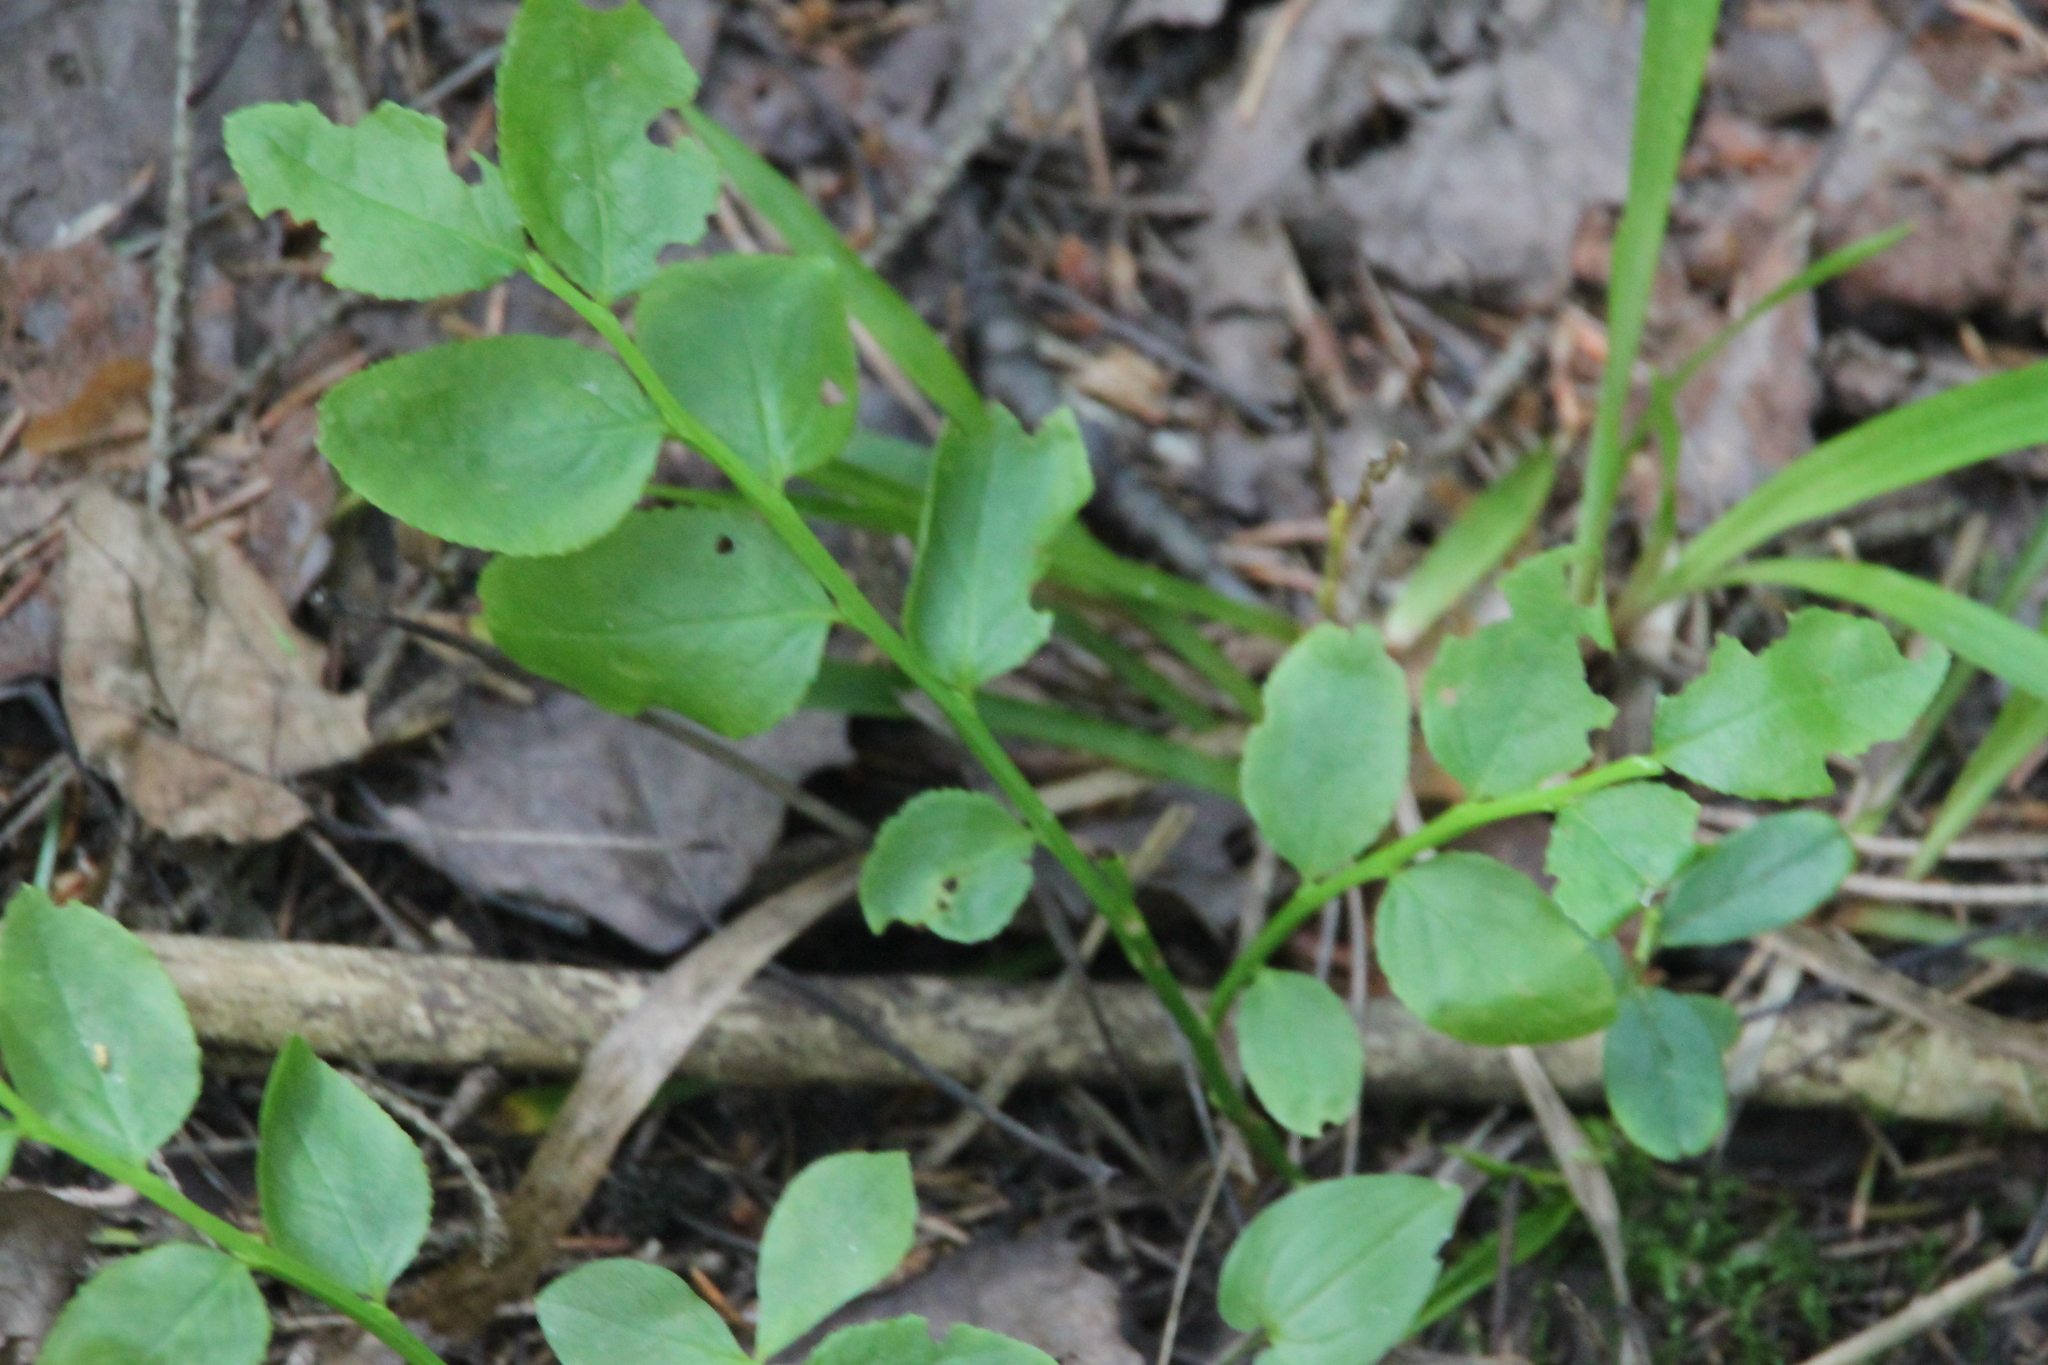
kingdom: Plantae
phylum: Tracheophyta
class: Magnoliopsida
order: Ericales
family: Ericaceae
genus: Vaccinium
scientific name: Vaccinium myrtillus
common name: Bilberry
